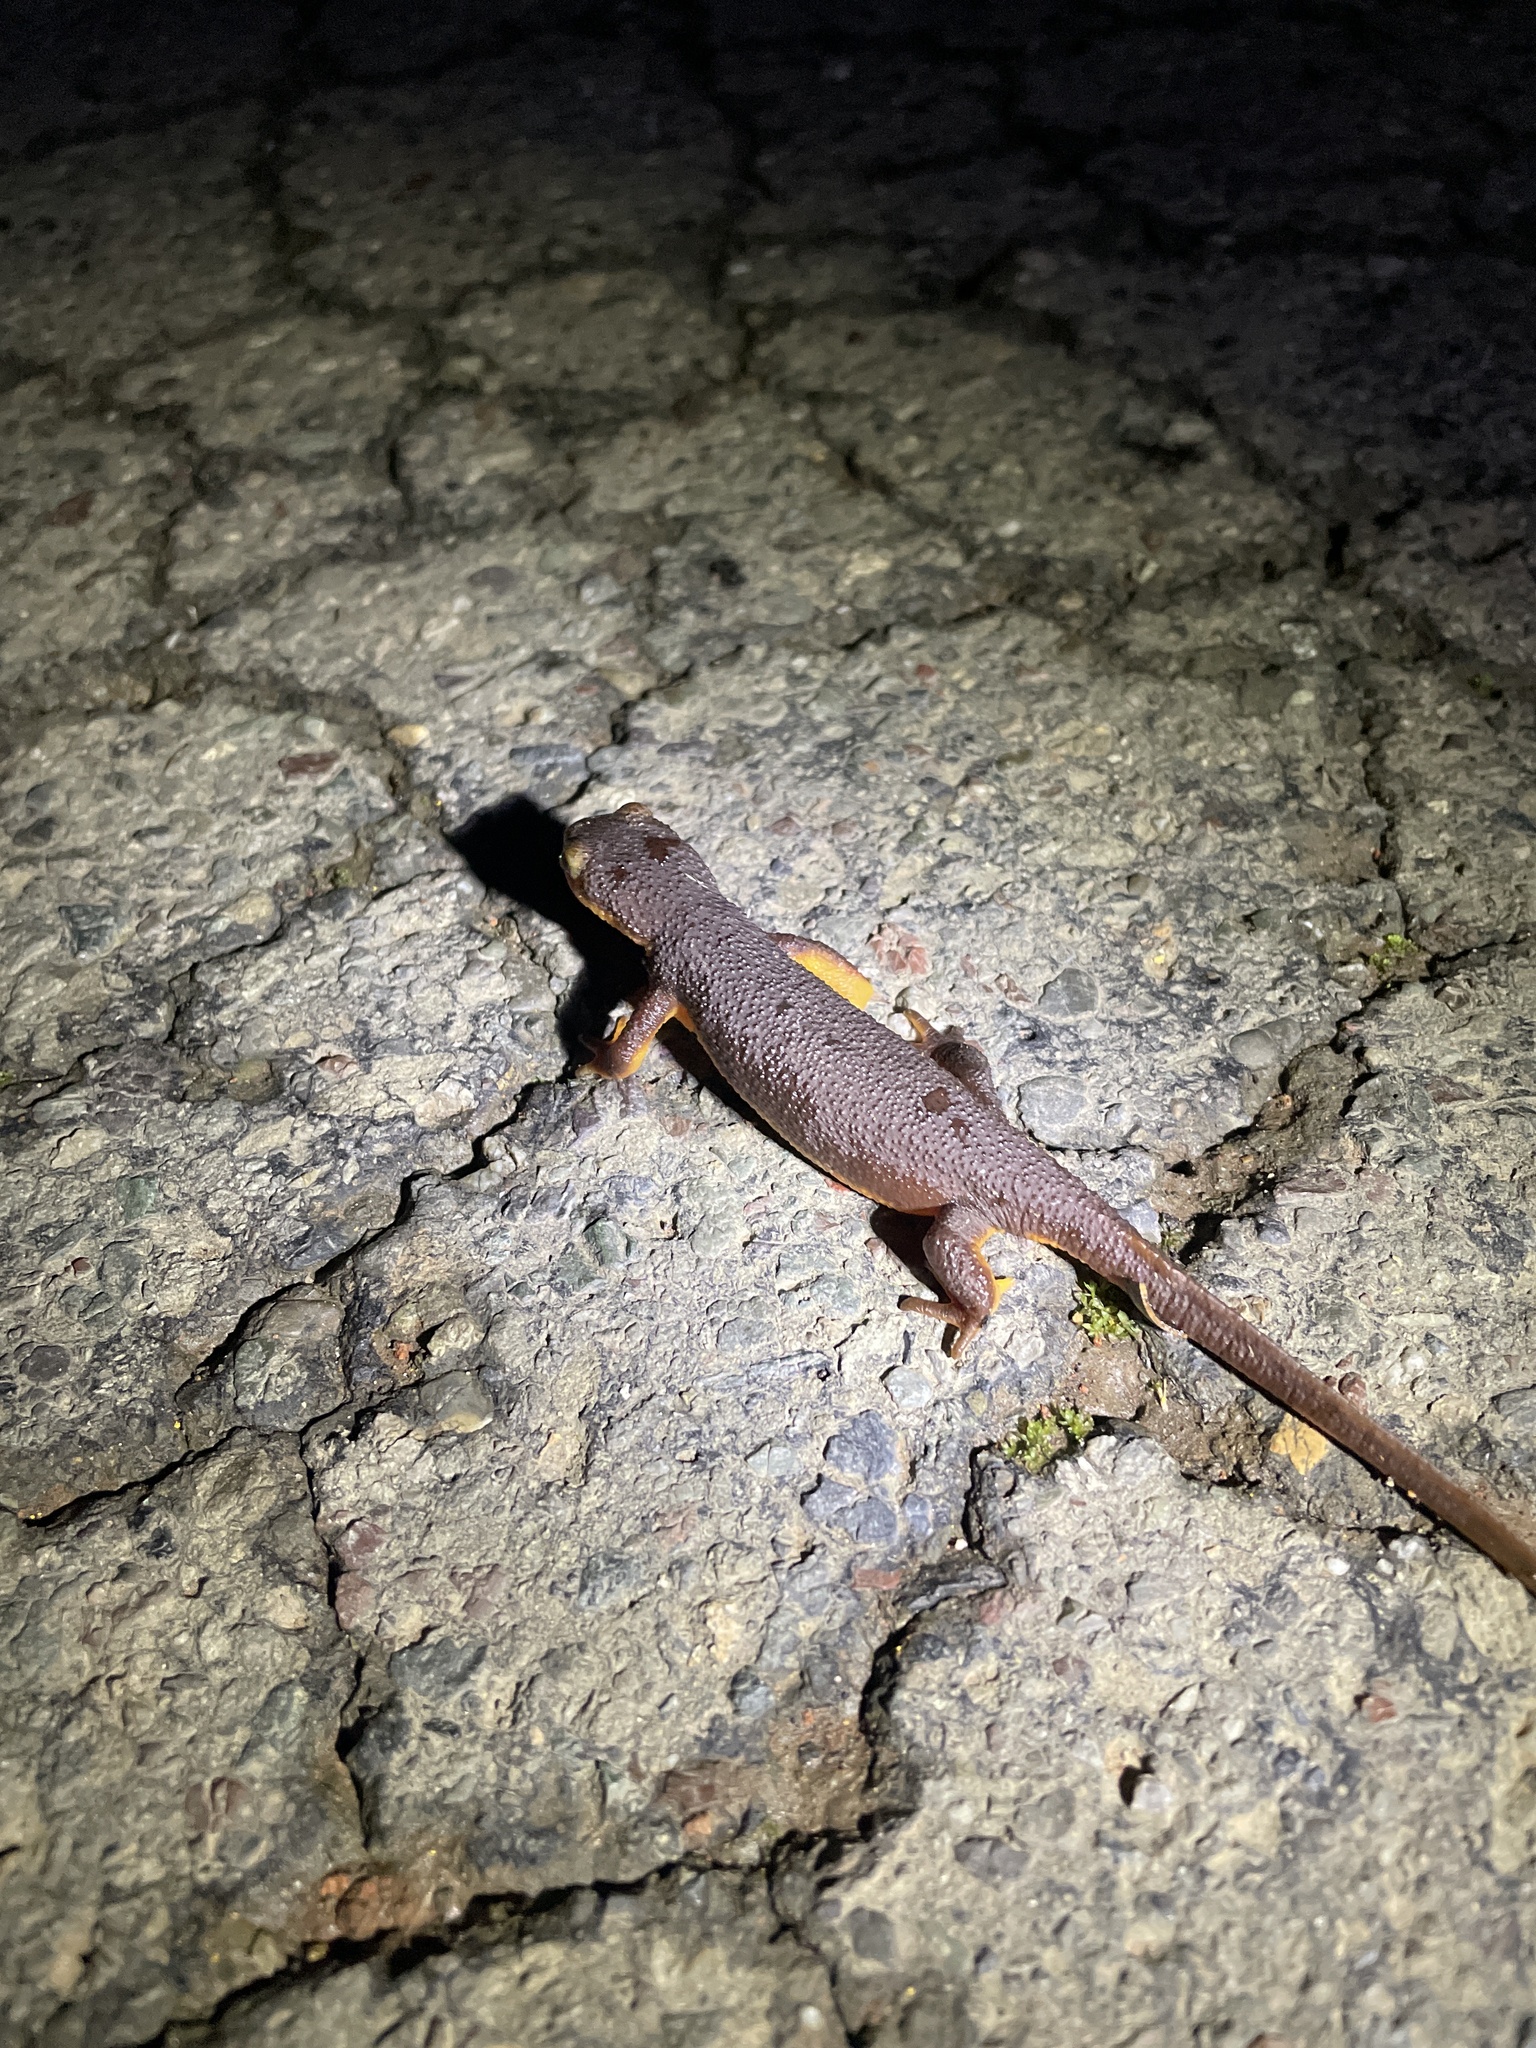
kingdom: Animalia
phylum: Chordata
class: Amphibia
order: Caudata
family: Salamandridae
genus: Taricha
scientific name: Taricha torosa
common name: California newt
